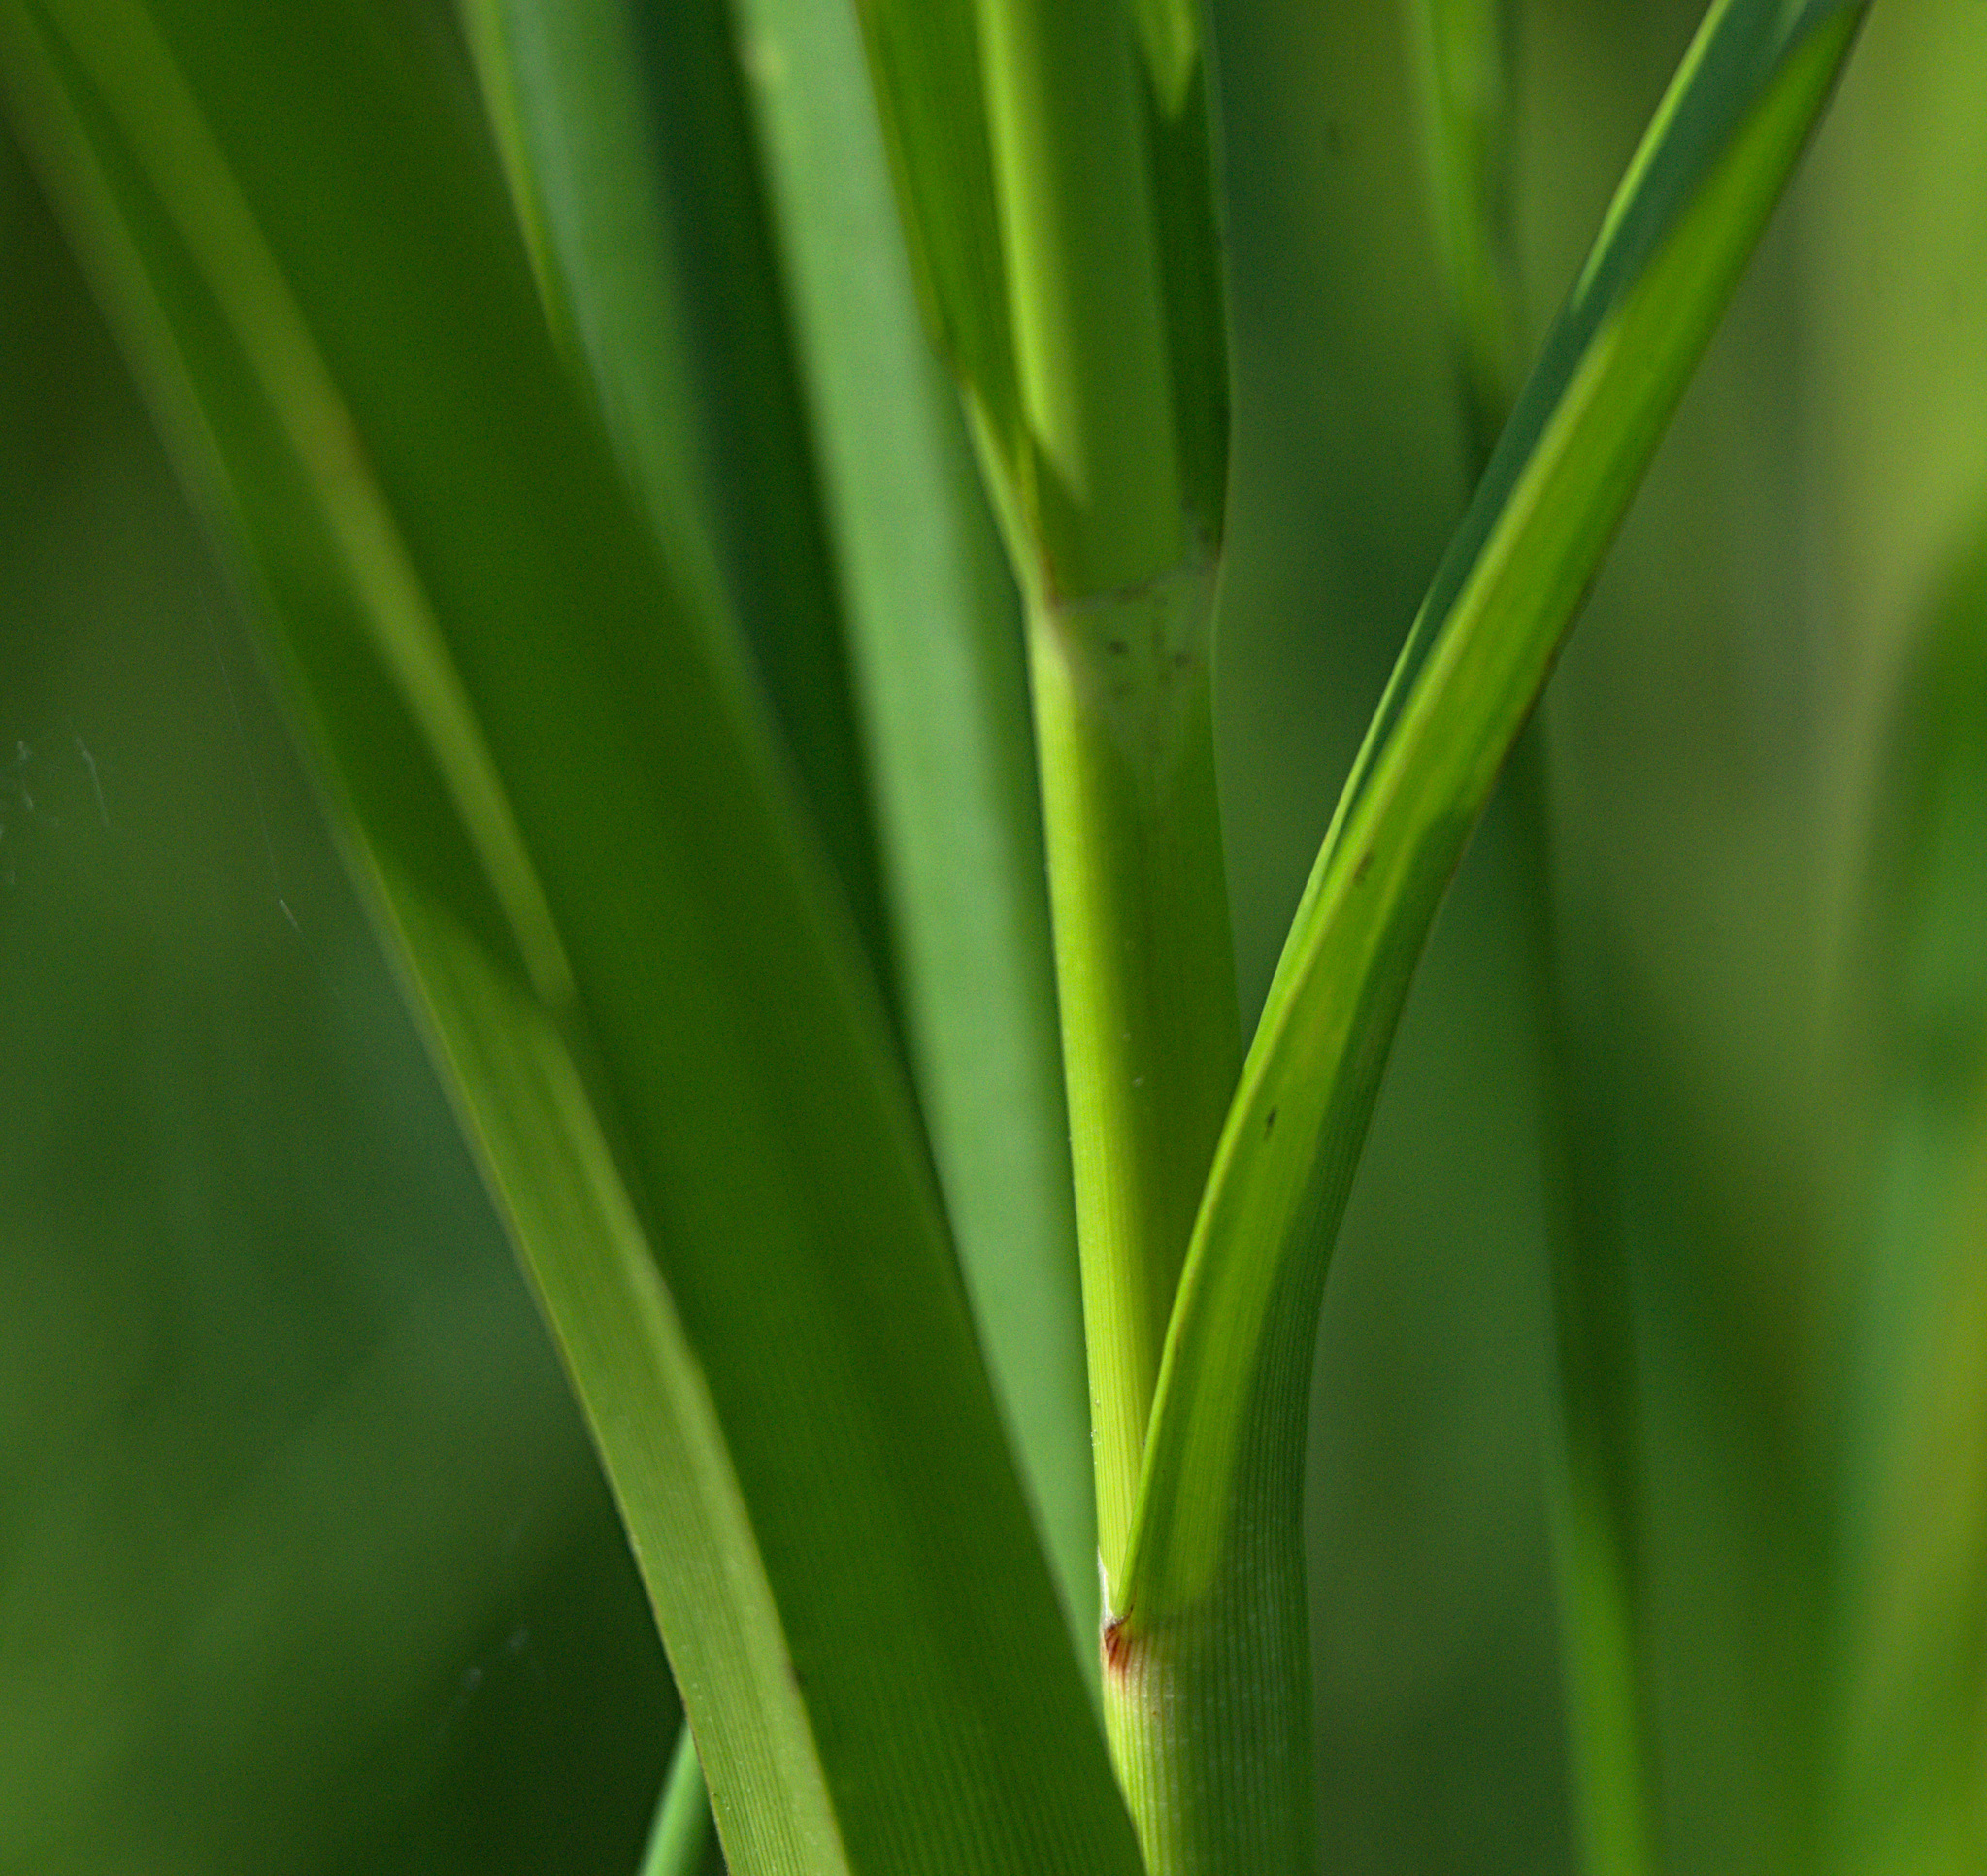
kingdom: Plantae
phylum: Tracheophyta
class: Liliopsida
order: Poales
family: Cyperaceae
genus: Scirpus
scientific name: Scirpus sylvaticus
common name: Wood club-rush
